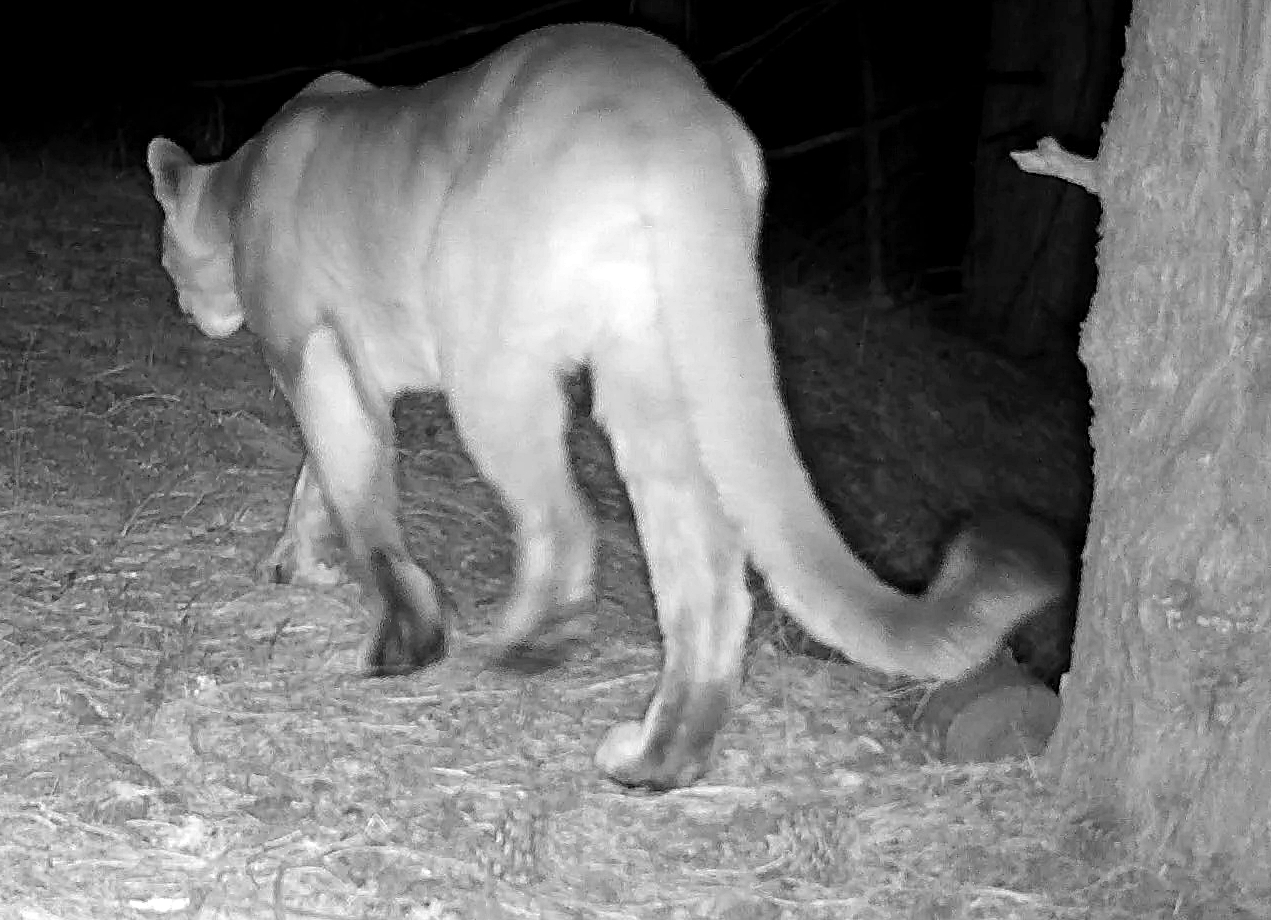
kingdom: Animalia
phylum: Chordata
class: Mammalia
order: Carnivora
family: Felidae
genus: Puma
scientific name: Puma concolor
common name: Puma
